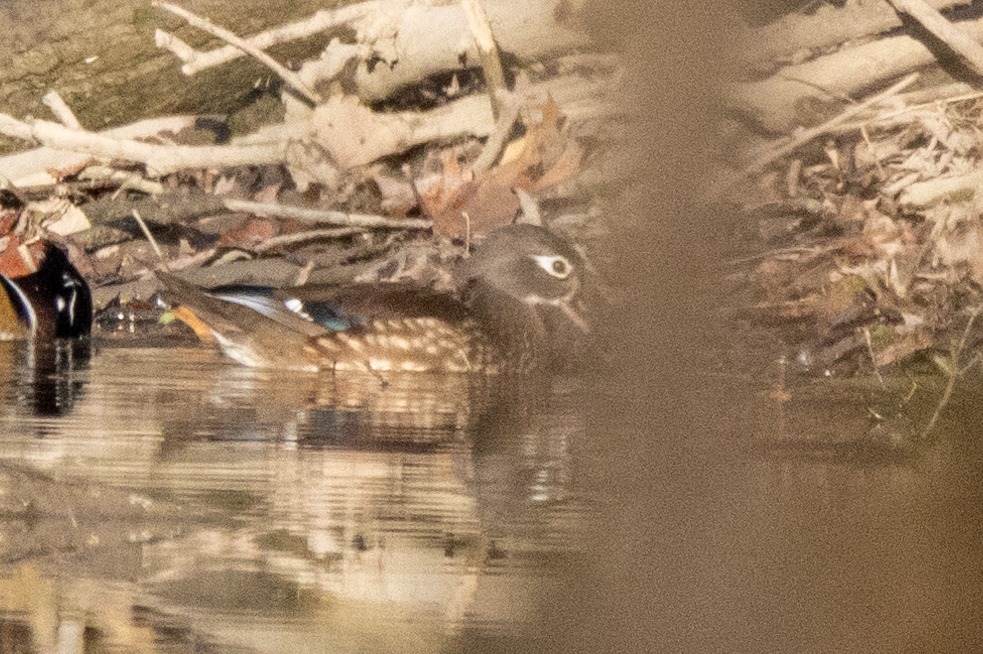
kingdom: Animalia
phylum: Chordata
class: Aves
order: Anseriformes
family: Anatidae
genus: Aix
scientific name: Aix sponsa
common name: Wood duck
